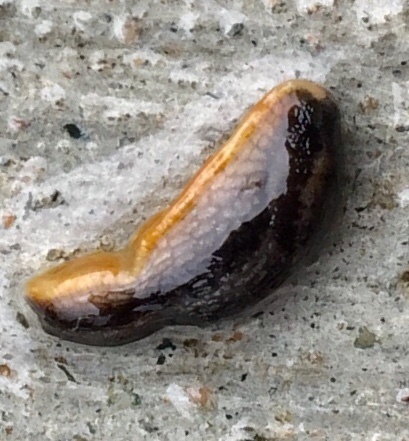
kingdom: Animalia
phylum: Mollusca
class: Gastropoda
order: Stylommatophora
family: Arionidae
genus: Arion
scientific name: Arion hortensis
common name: Garden arion
